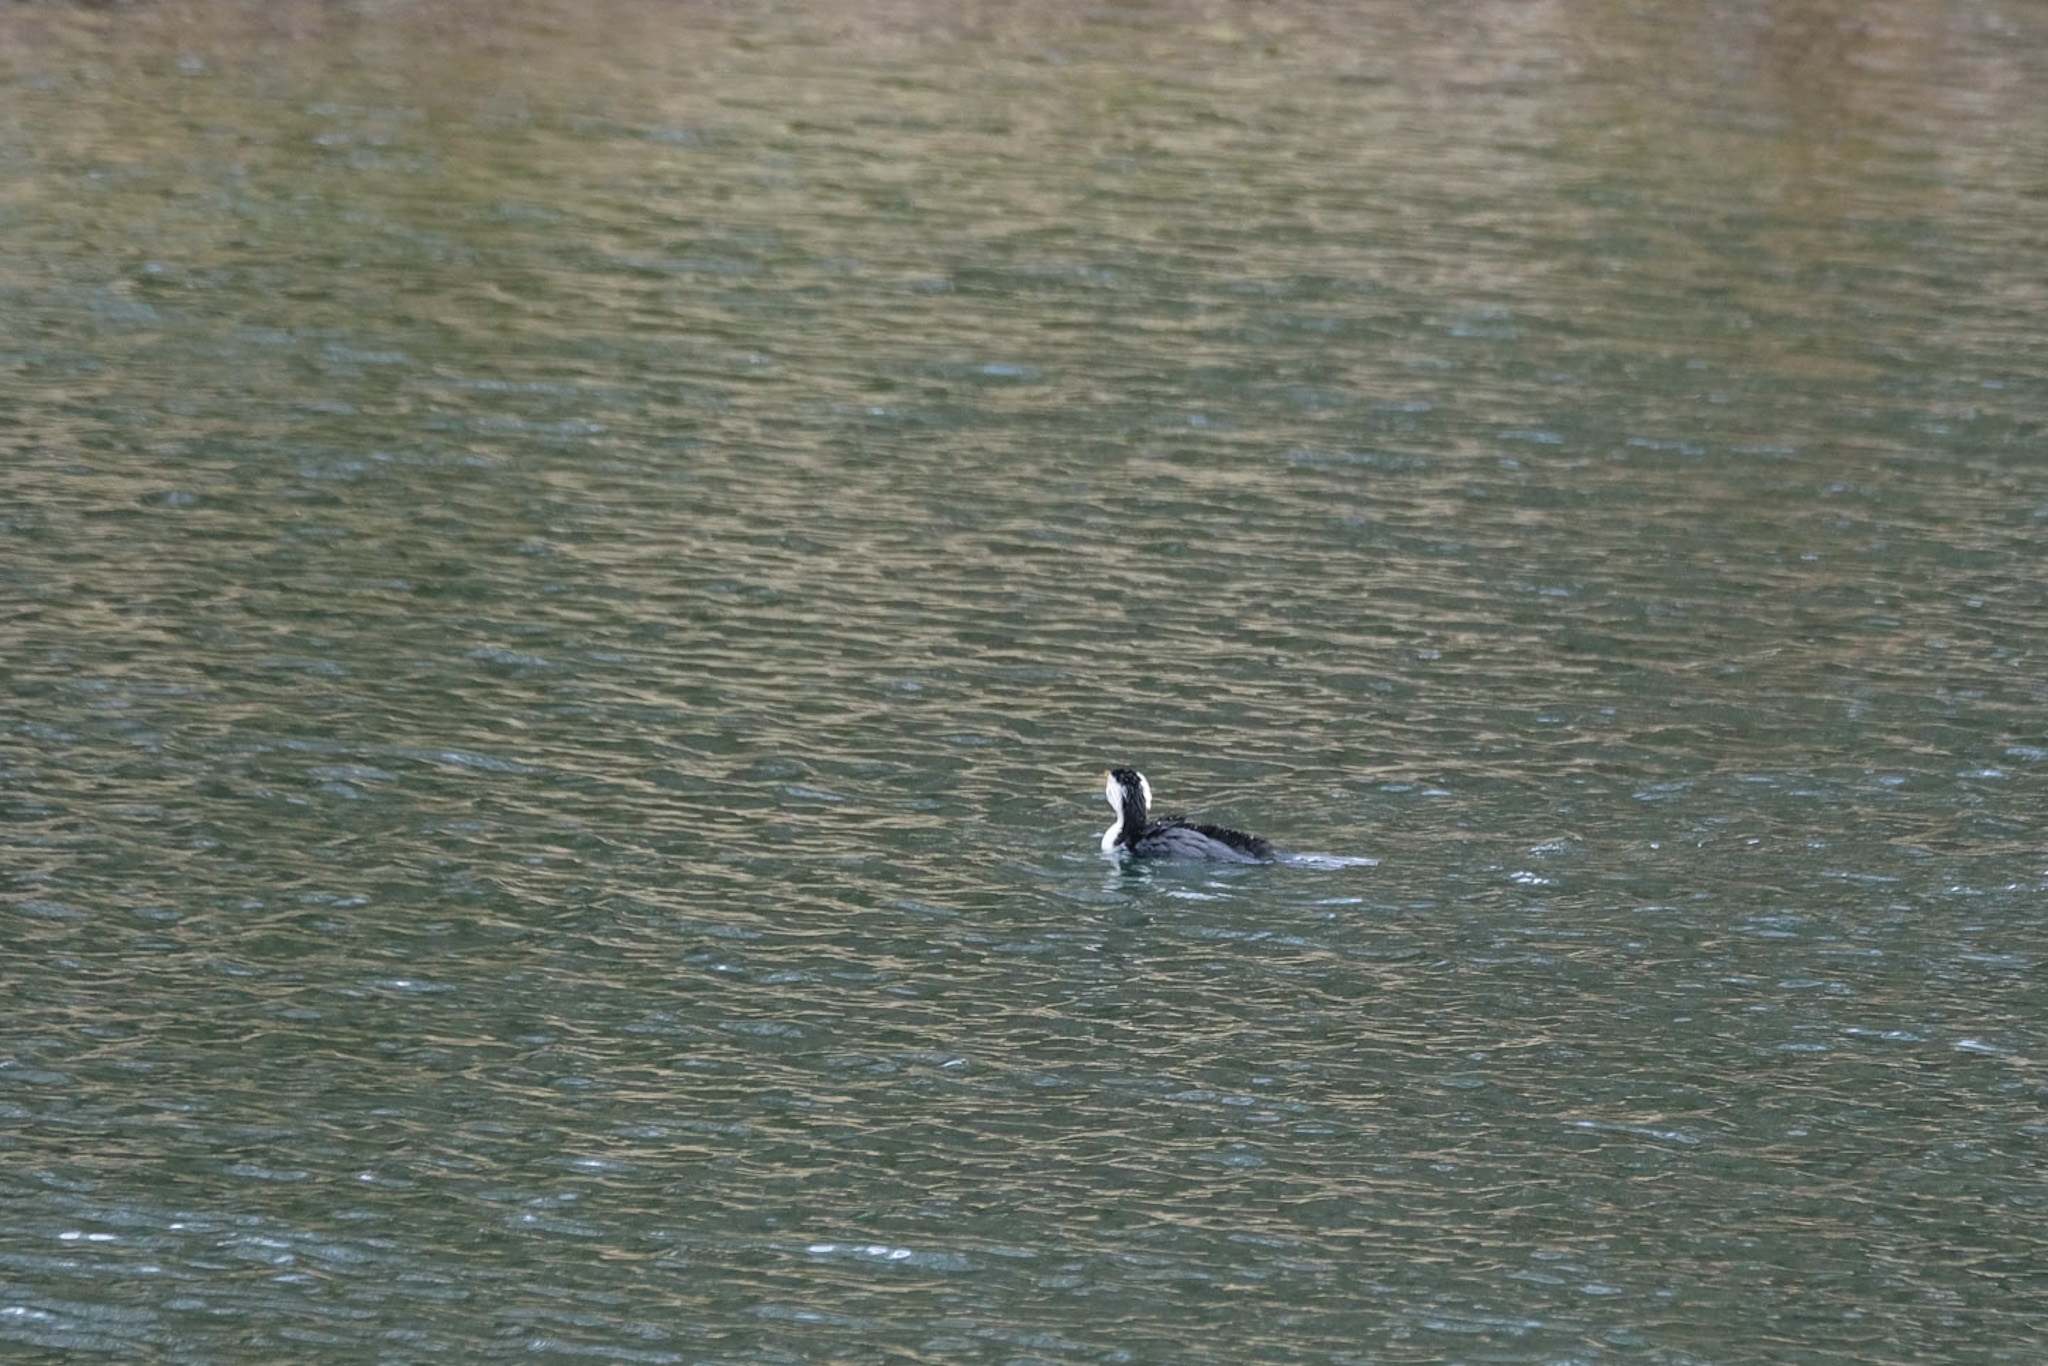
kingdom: Animalia
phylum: Chordata
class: Aves
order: Suliformes
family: Phalacrocoracidae
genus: Microcarbo
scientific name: Microcarbo melanoleucos
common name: Little pied cormorant
